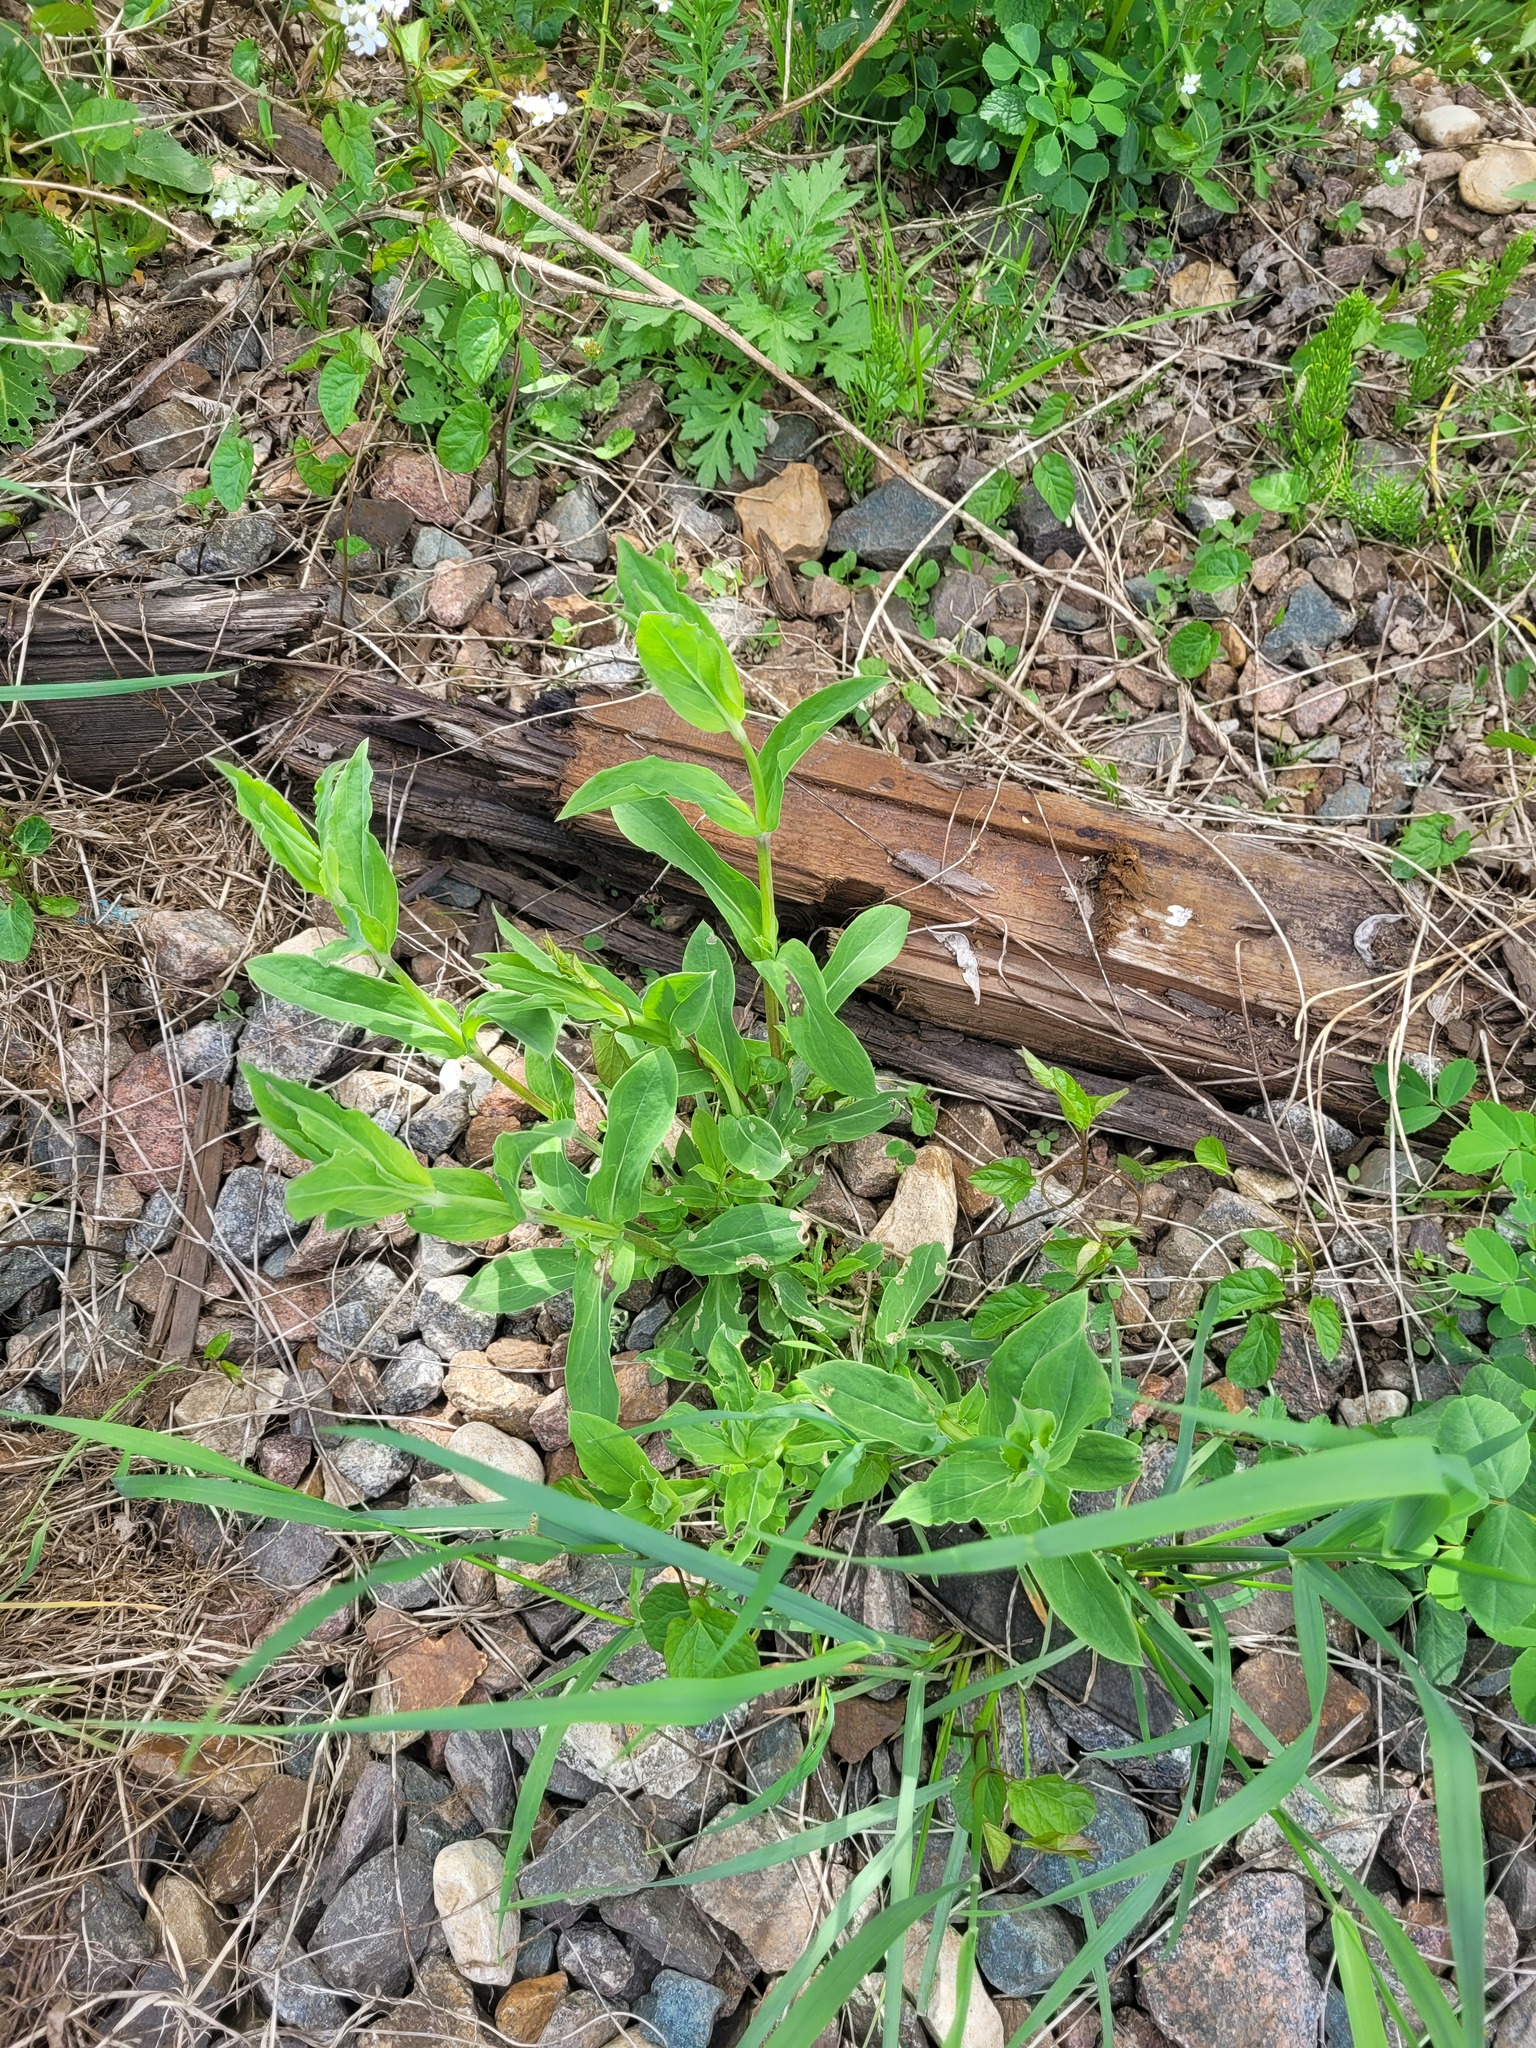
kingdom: Plantae
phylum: Tracheophyta
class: Magnoliopsida
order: Caryophyllales
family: Caryophyllaceae
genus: Silene
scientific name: Silene vulgaris
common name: Bladder campion
